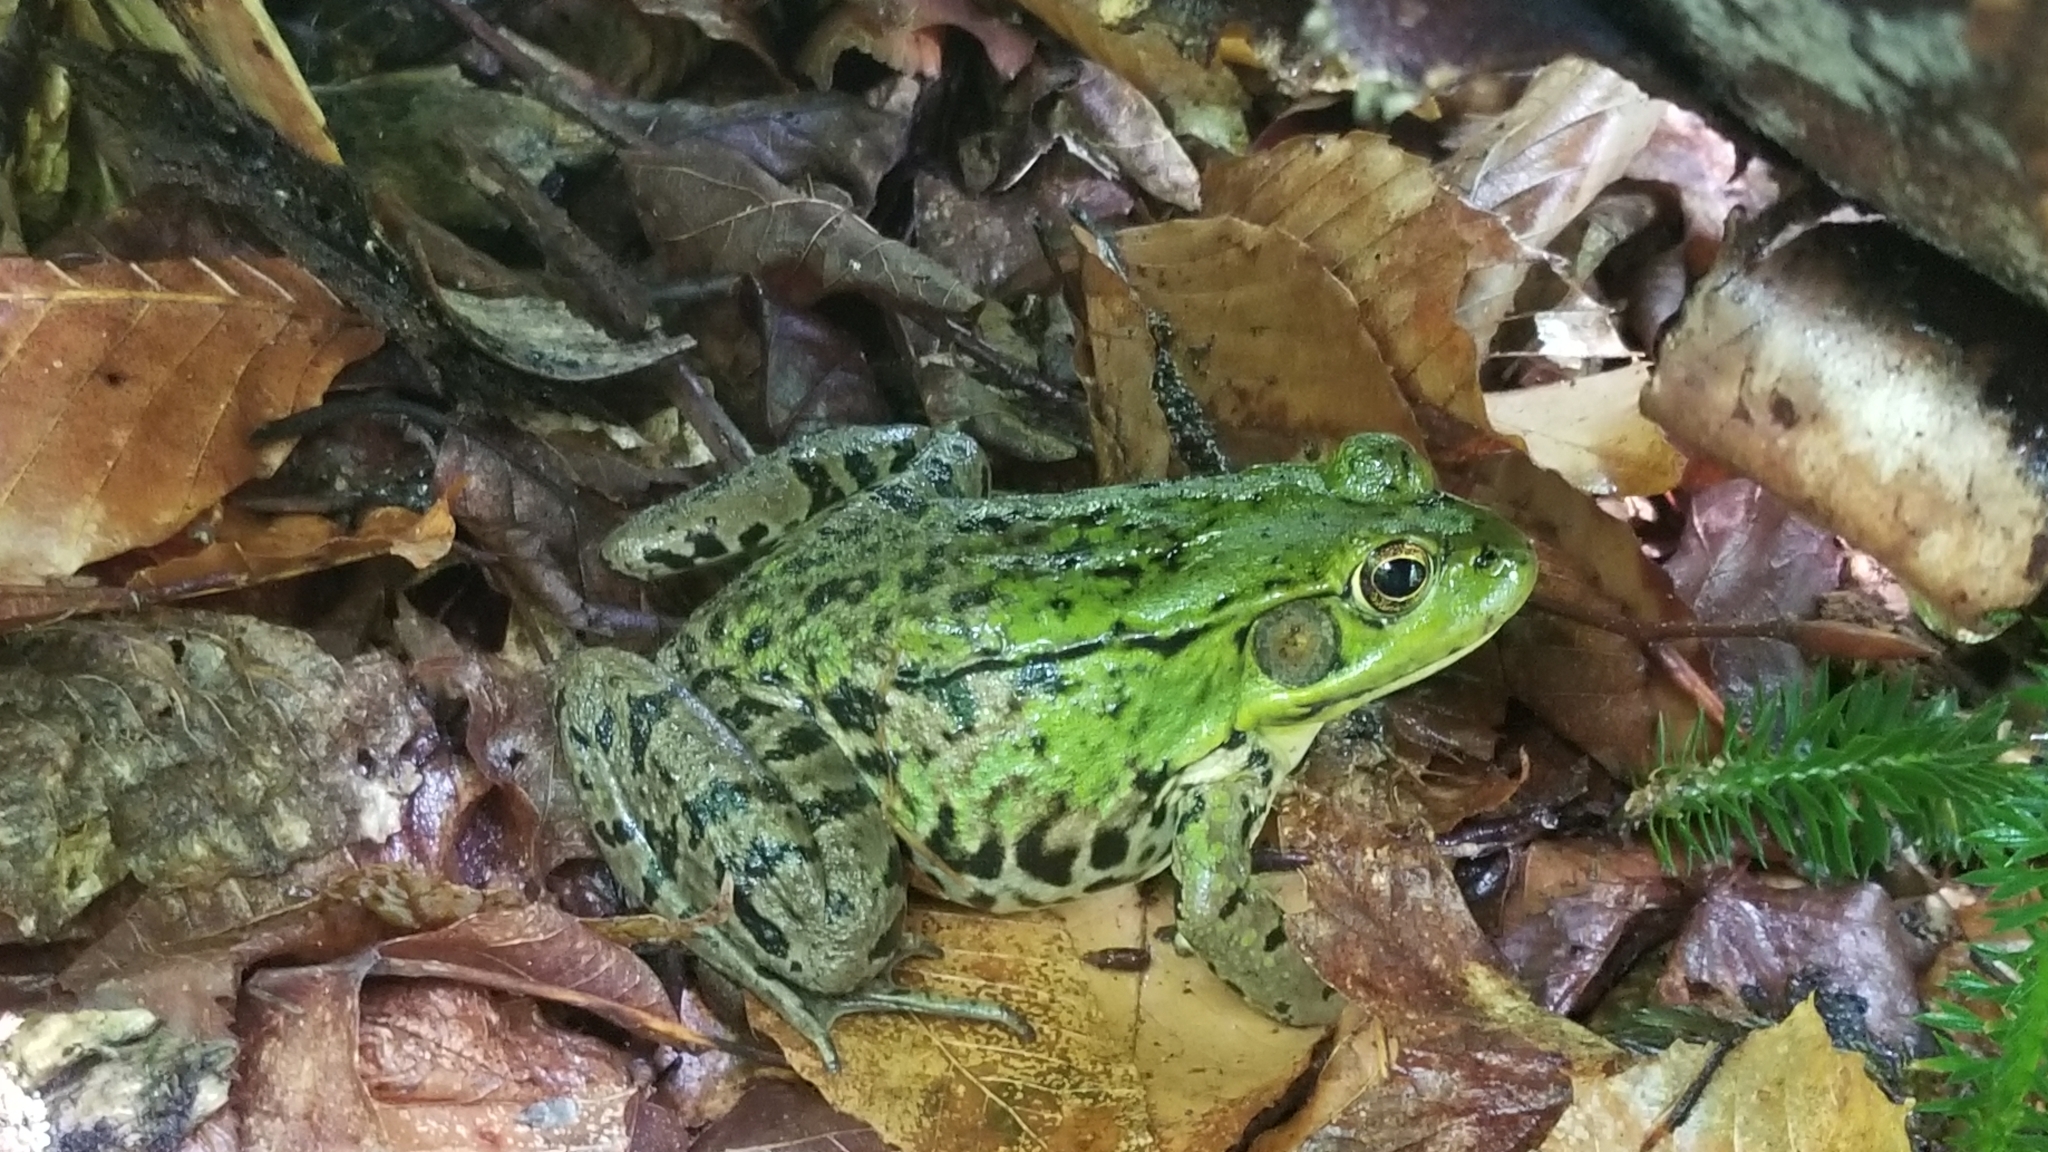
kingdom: Animalia
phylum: Chordata
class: Amphibia
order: Anura
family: Ranidae
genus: Lithobates
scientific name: Lithobates clamitans
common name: Green frog
